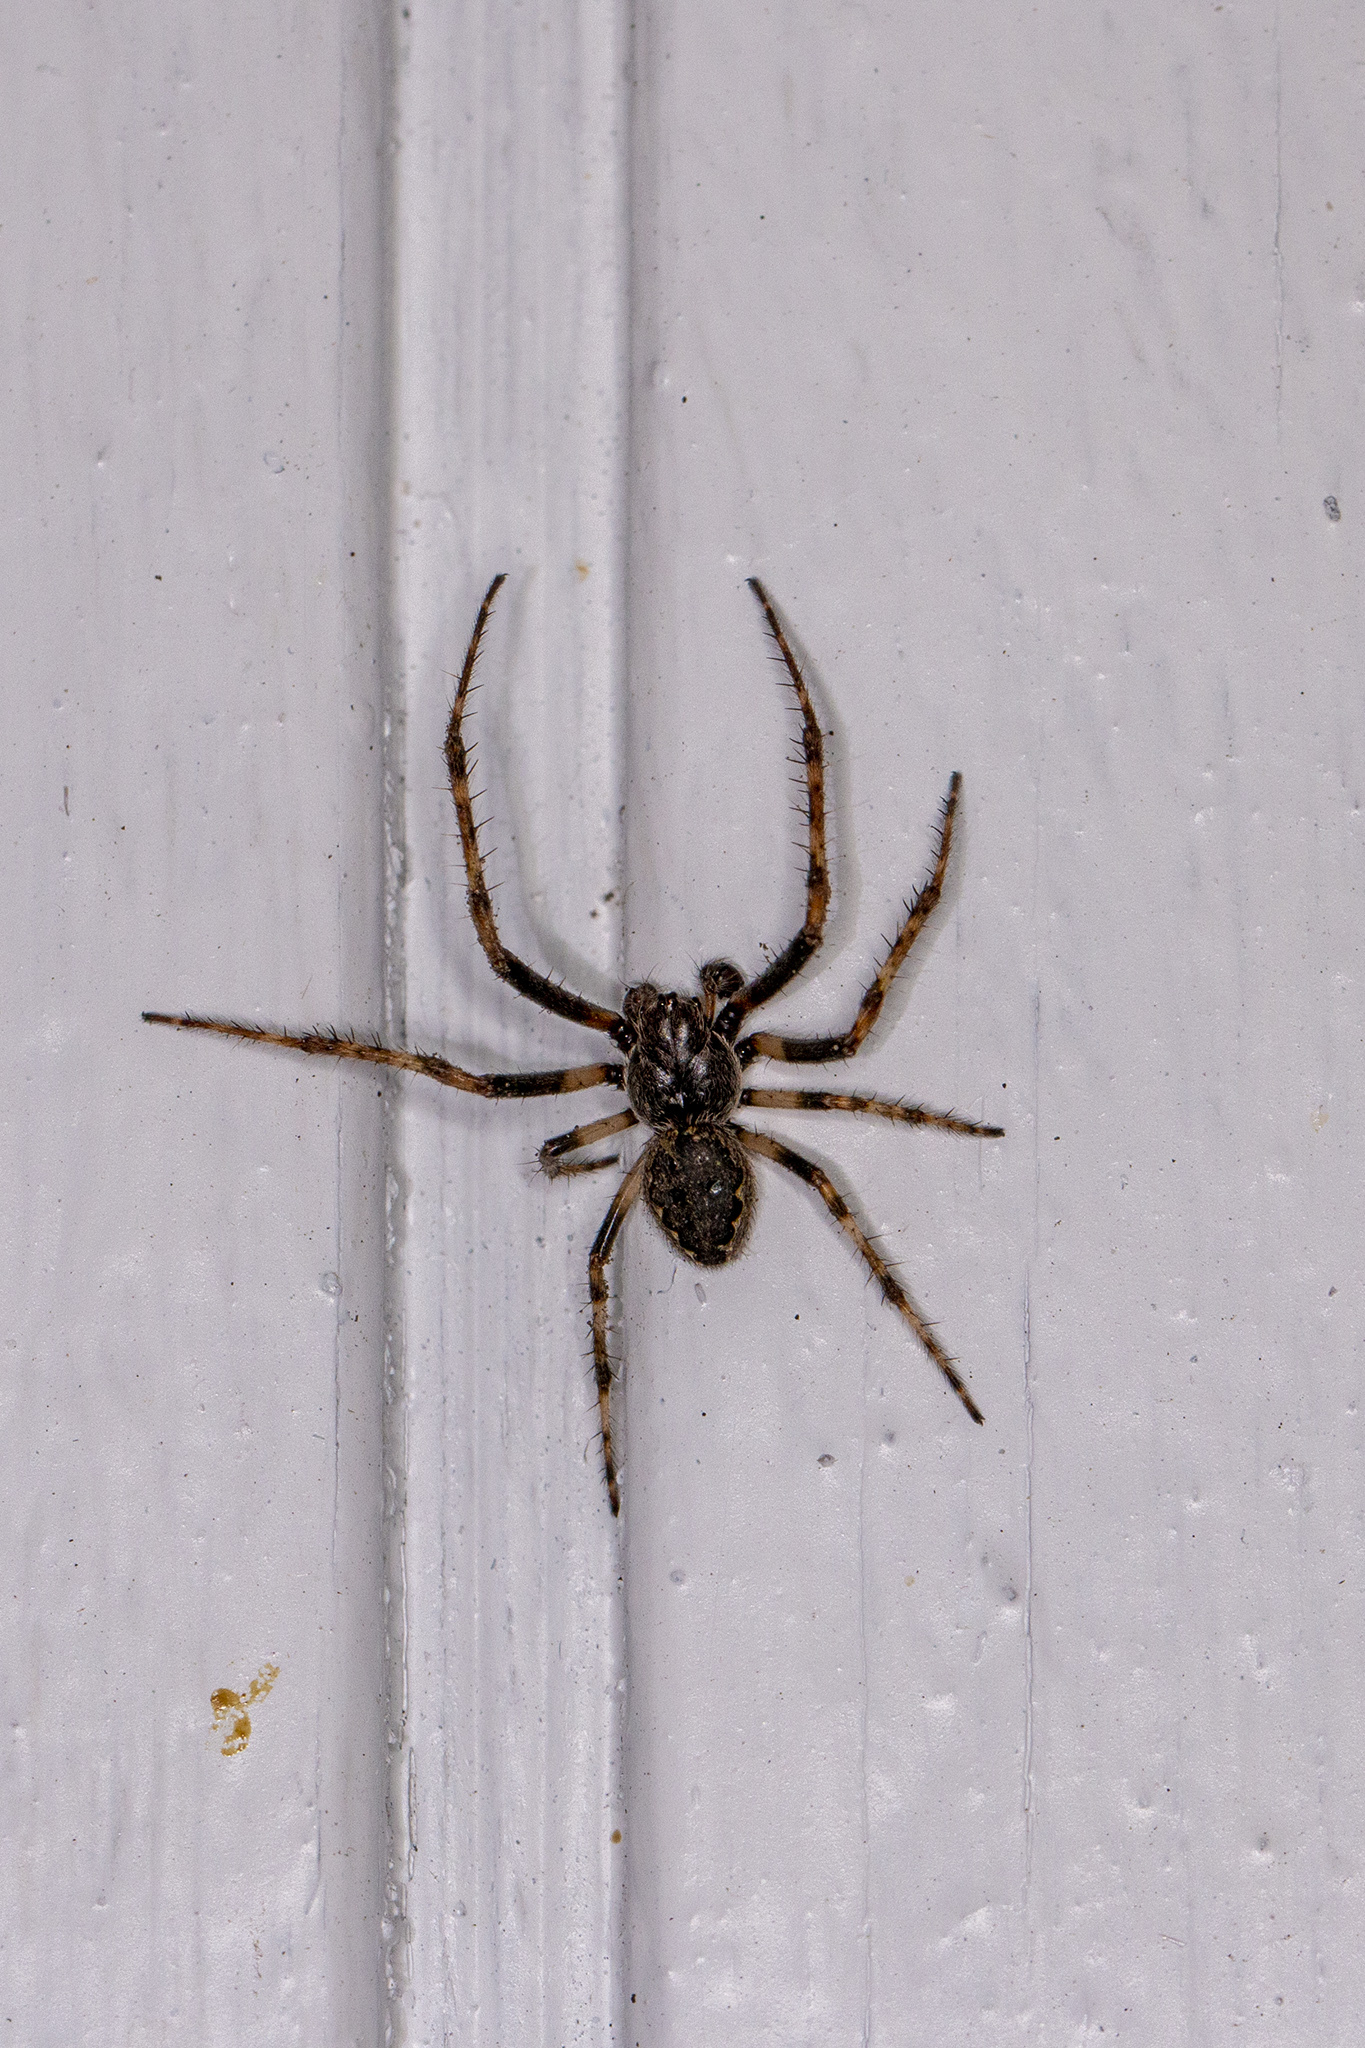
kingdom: Animalia
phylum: Arthropoda
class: Arachnida
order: Araneae
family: Araneidae
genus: Nuctenea
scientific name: Nuctenea umbratica
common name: Toad spider
